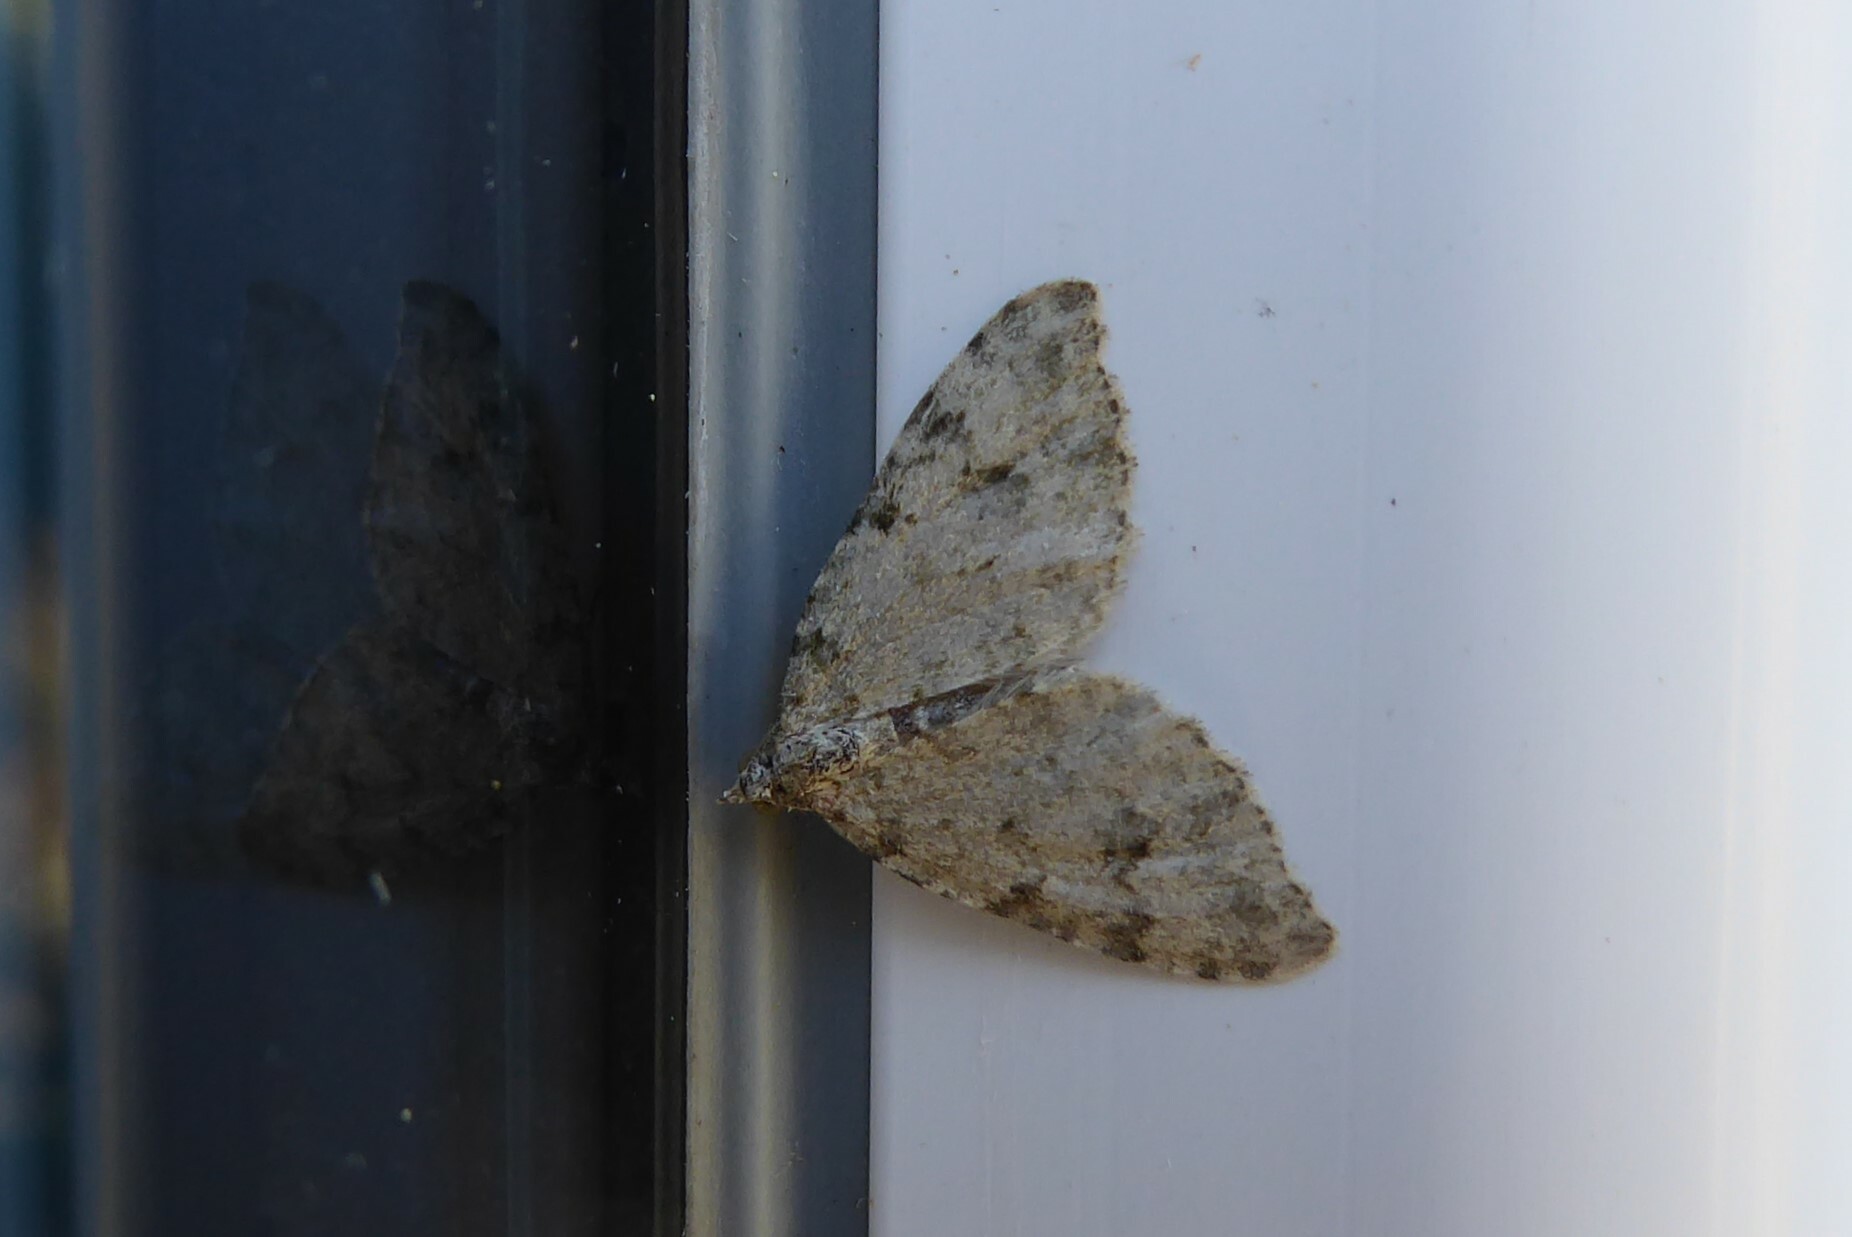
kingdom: Animalia
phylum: Arthropoda
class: Insecta
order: Lepidoptera
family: Geometridae
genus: Helastia
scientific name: Helastia cinerearia
